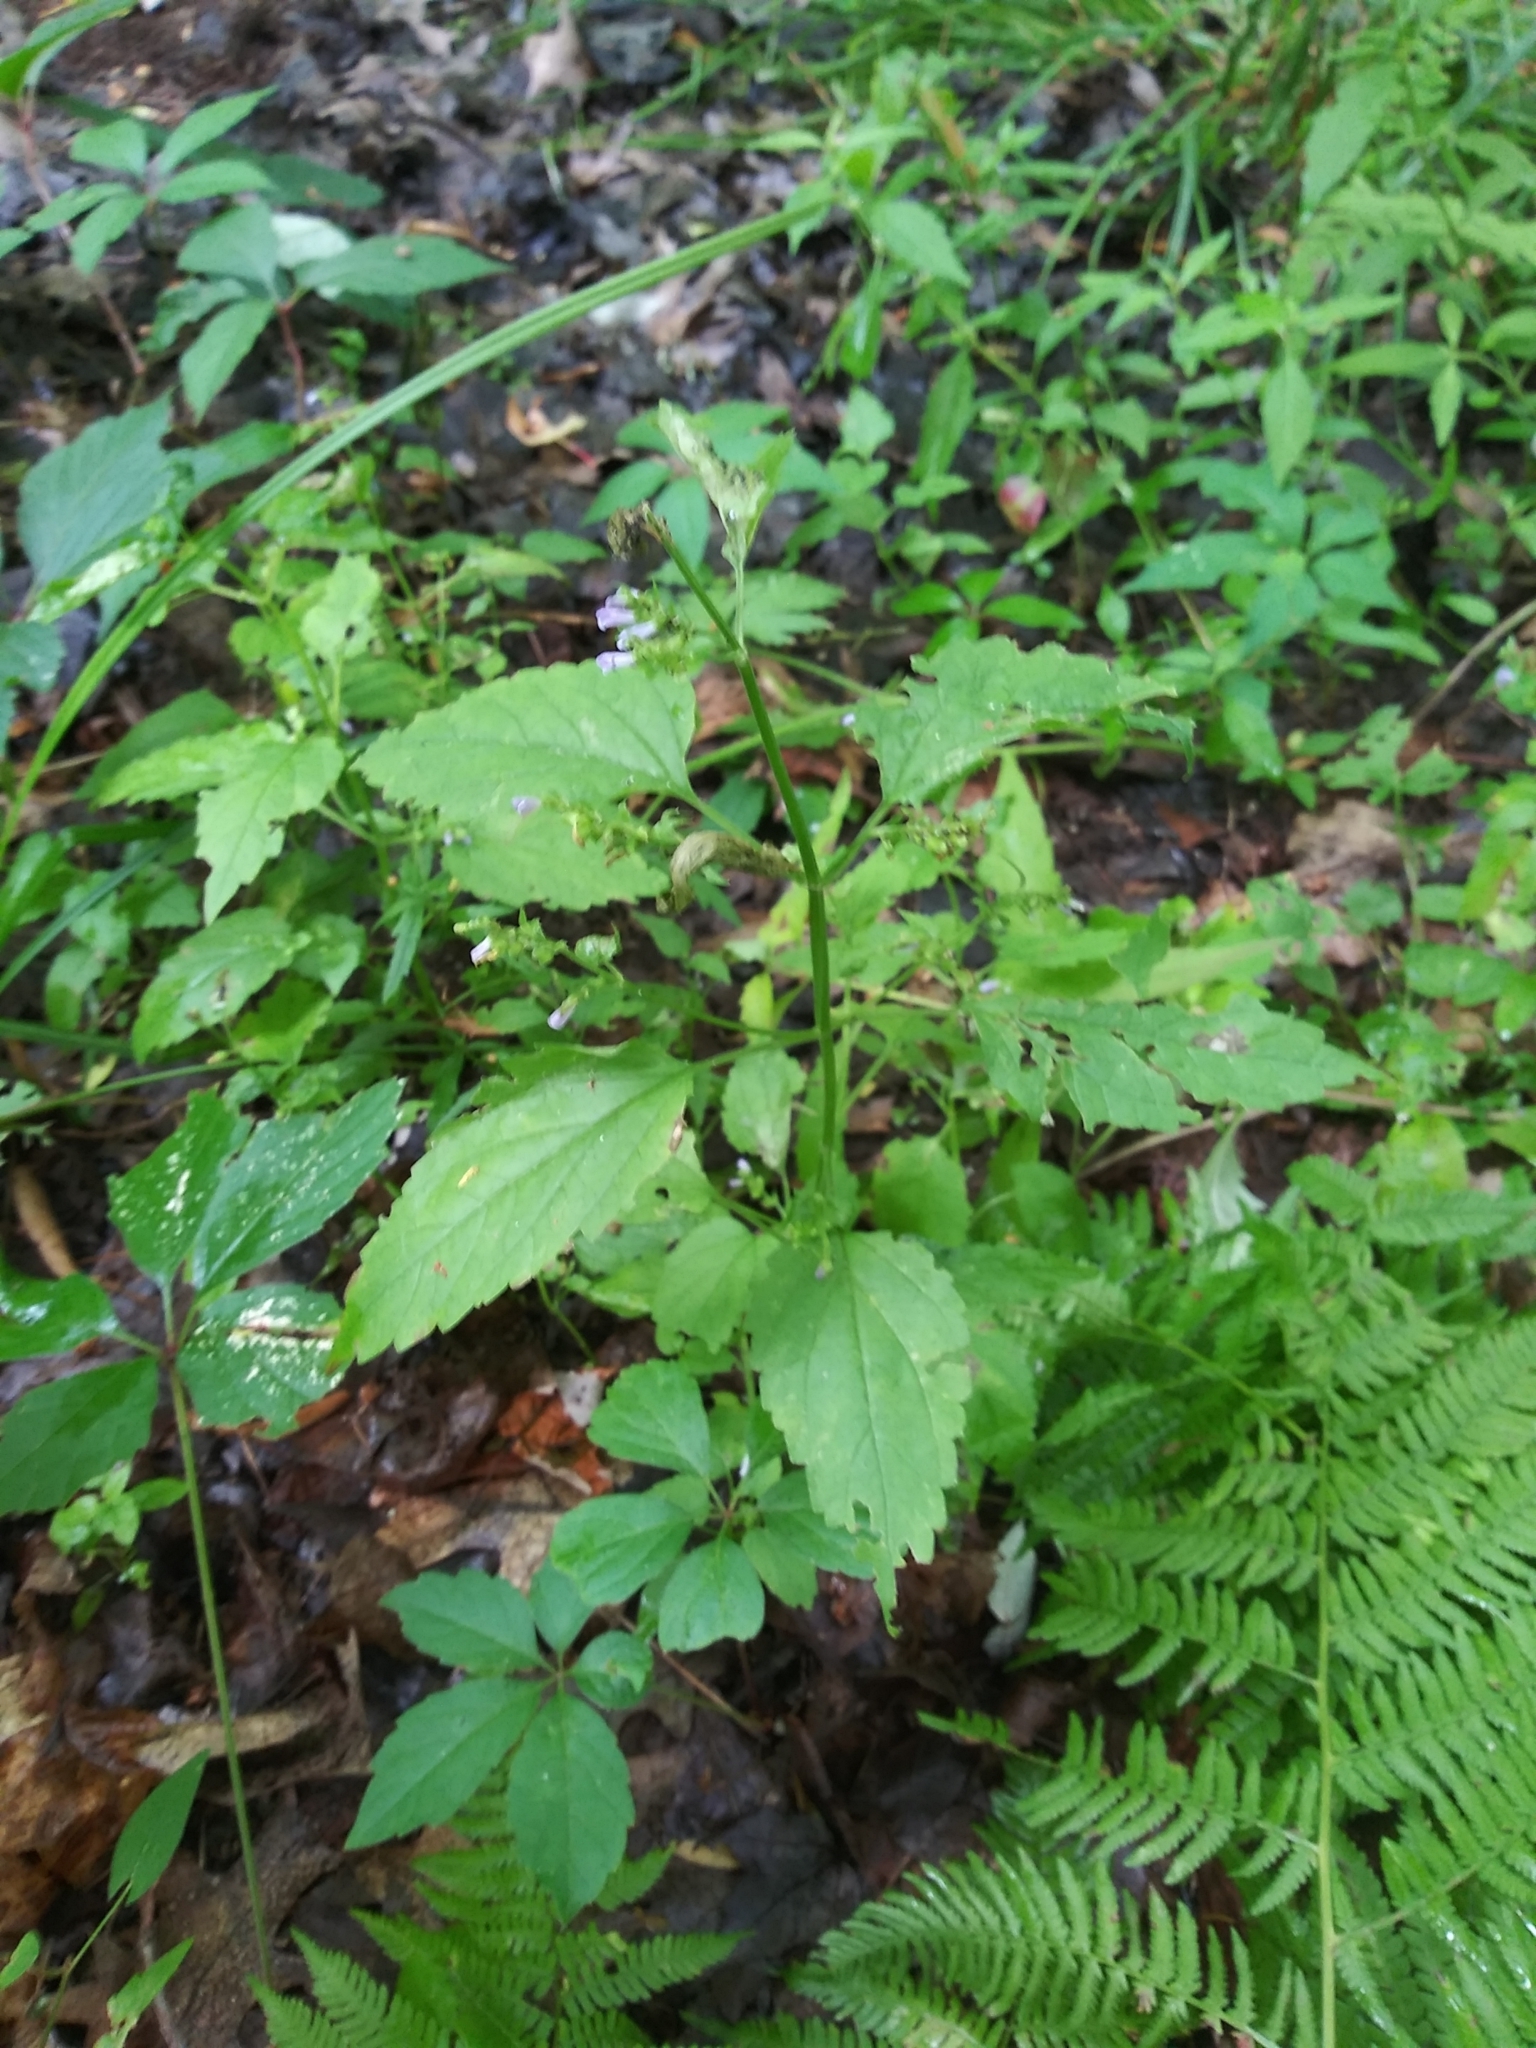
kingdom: Plantae
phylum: Tracheophyta
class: Magnoliopsida
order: Lamiales
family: Lamiaceae
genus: Scutellaria
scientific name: Scutellaria lateriflora
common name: Blue skullcap
